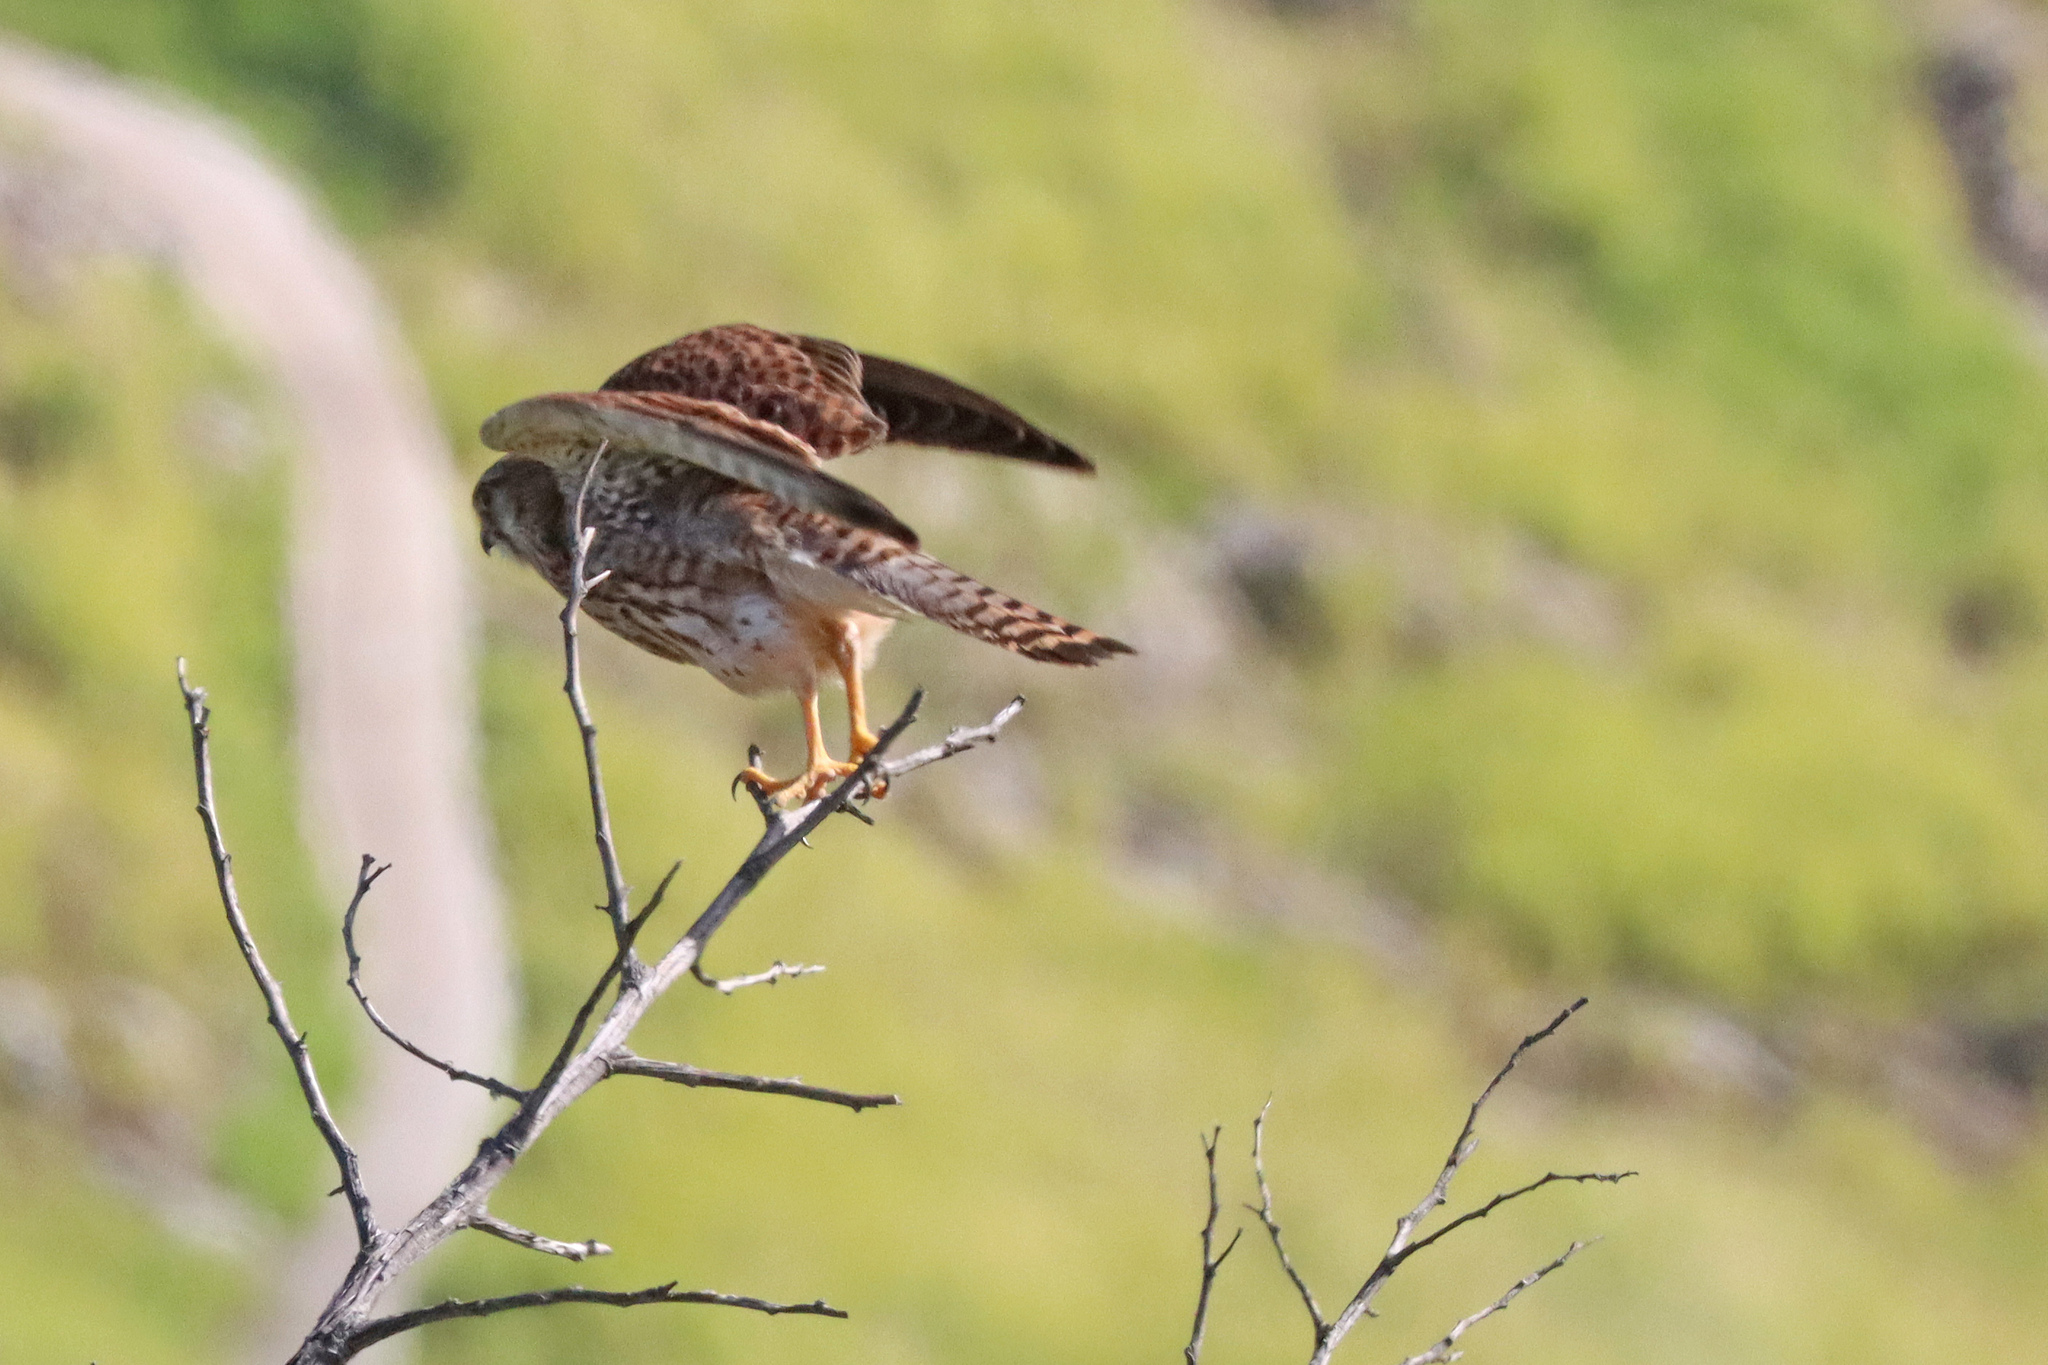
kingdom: Animalia
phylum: Chordata
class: Aves
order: Falconiformes
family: Falconidae
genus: Falco
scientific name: Falco tinnunculus
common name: Common kestrel
